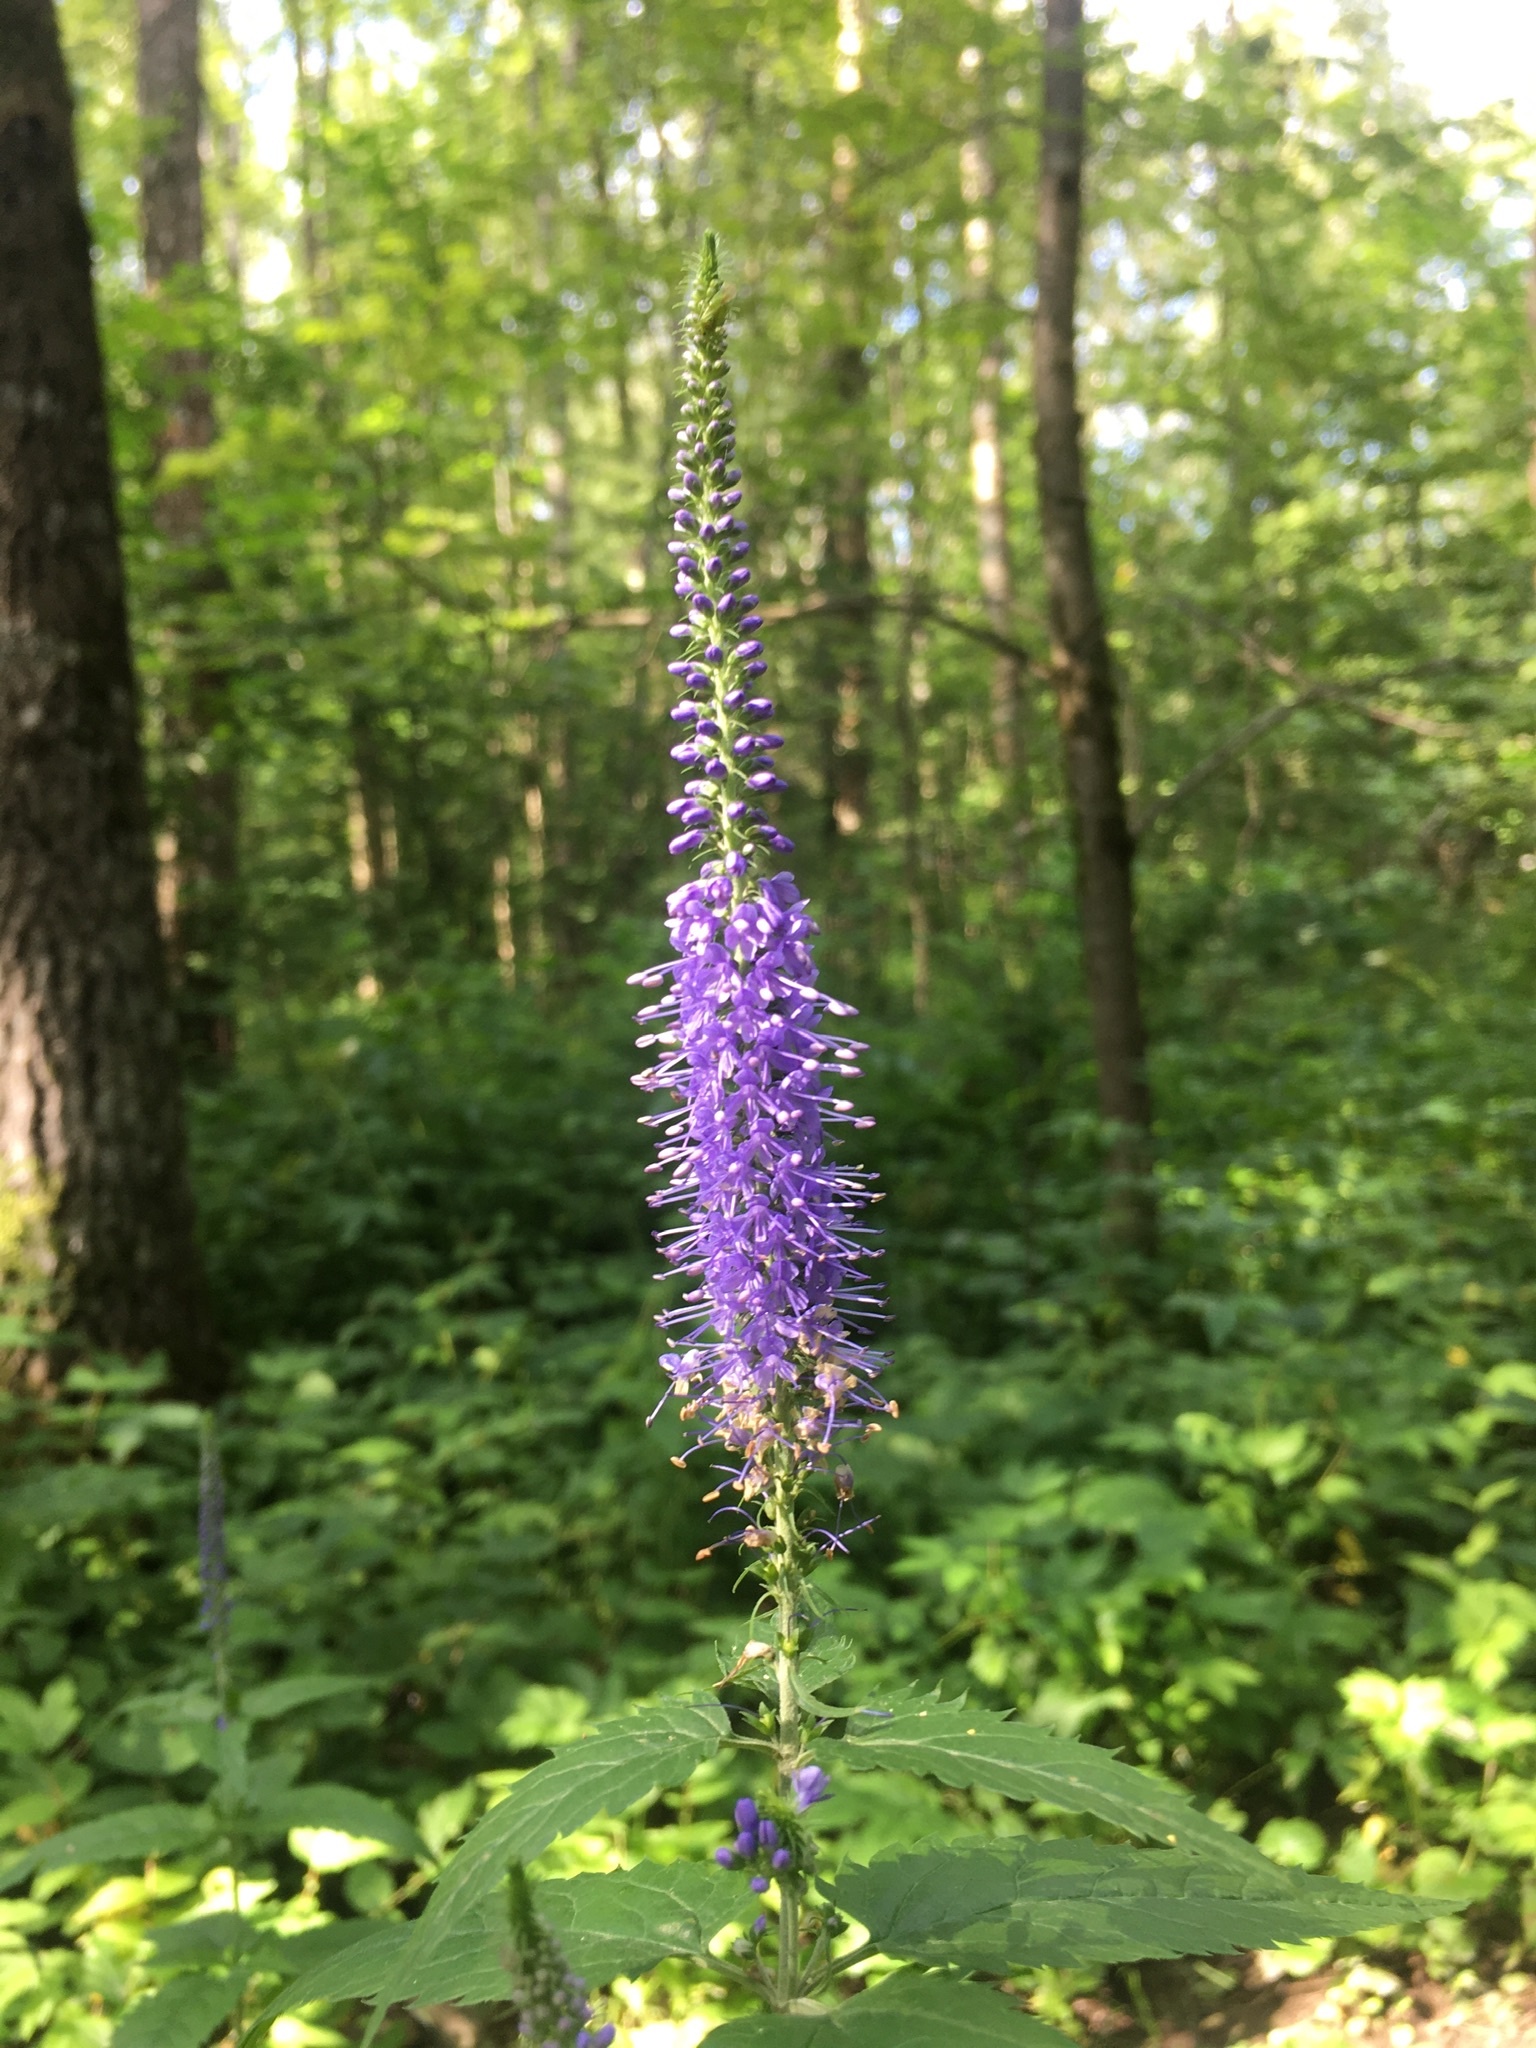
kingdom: Plantae
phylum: Tracheophyta
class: Magnoliopsida
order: Lamiales
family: Plantaginaceae
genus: Veronica
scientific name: Veronica longifolia
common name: Garden speedwell
